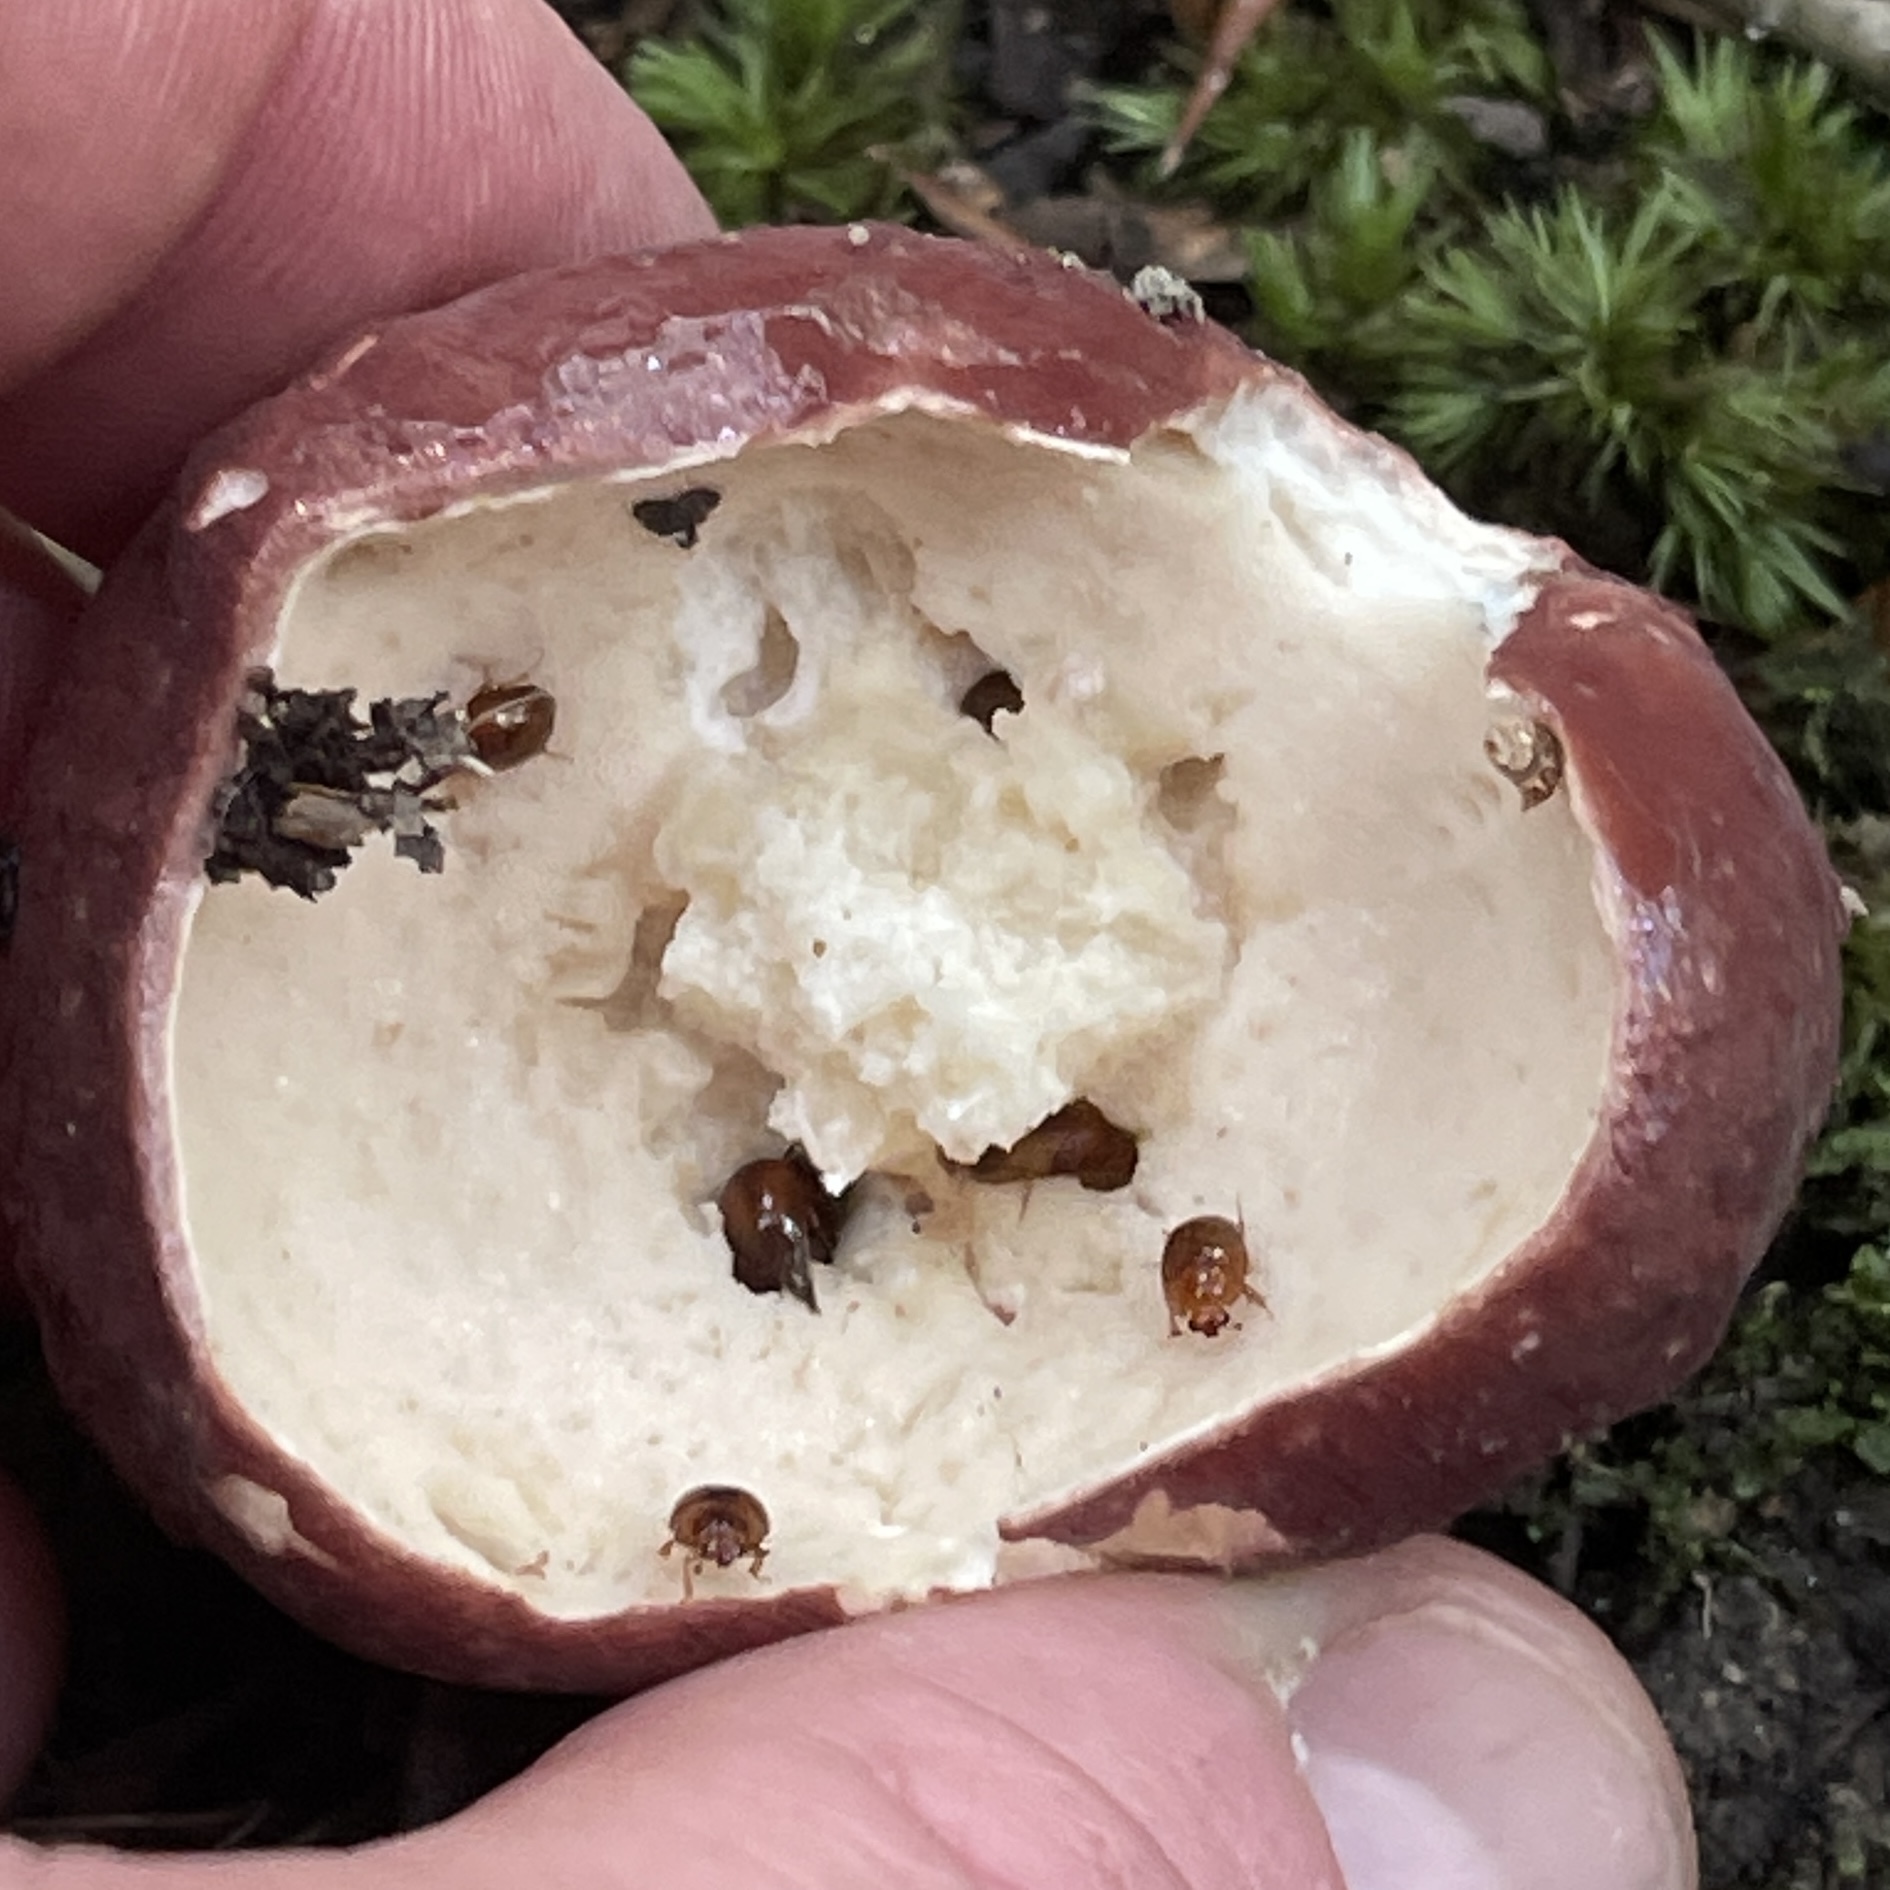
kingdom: Fungi
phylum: Basidiomycota
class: Agaricomycetes
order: Boletales
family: Boletaceae
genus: Xanthoconium
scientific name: Xanthoconium purpureum
